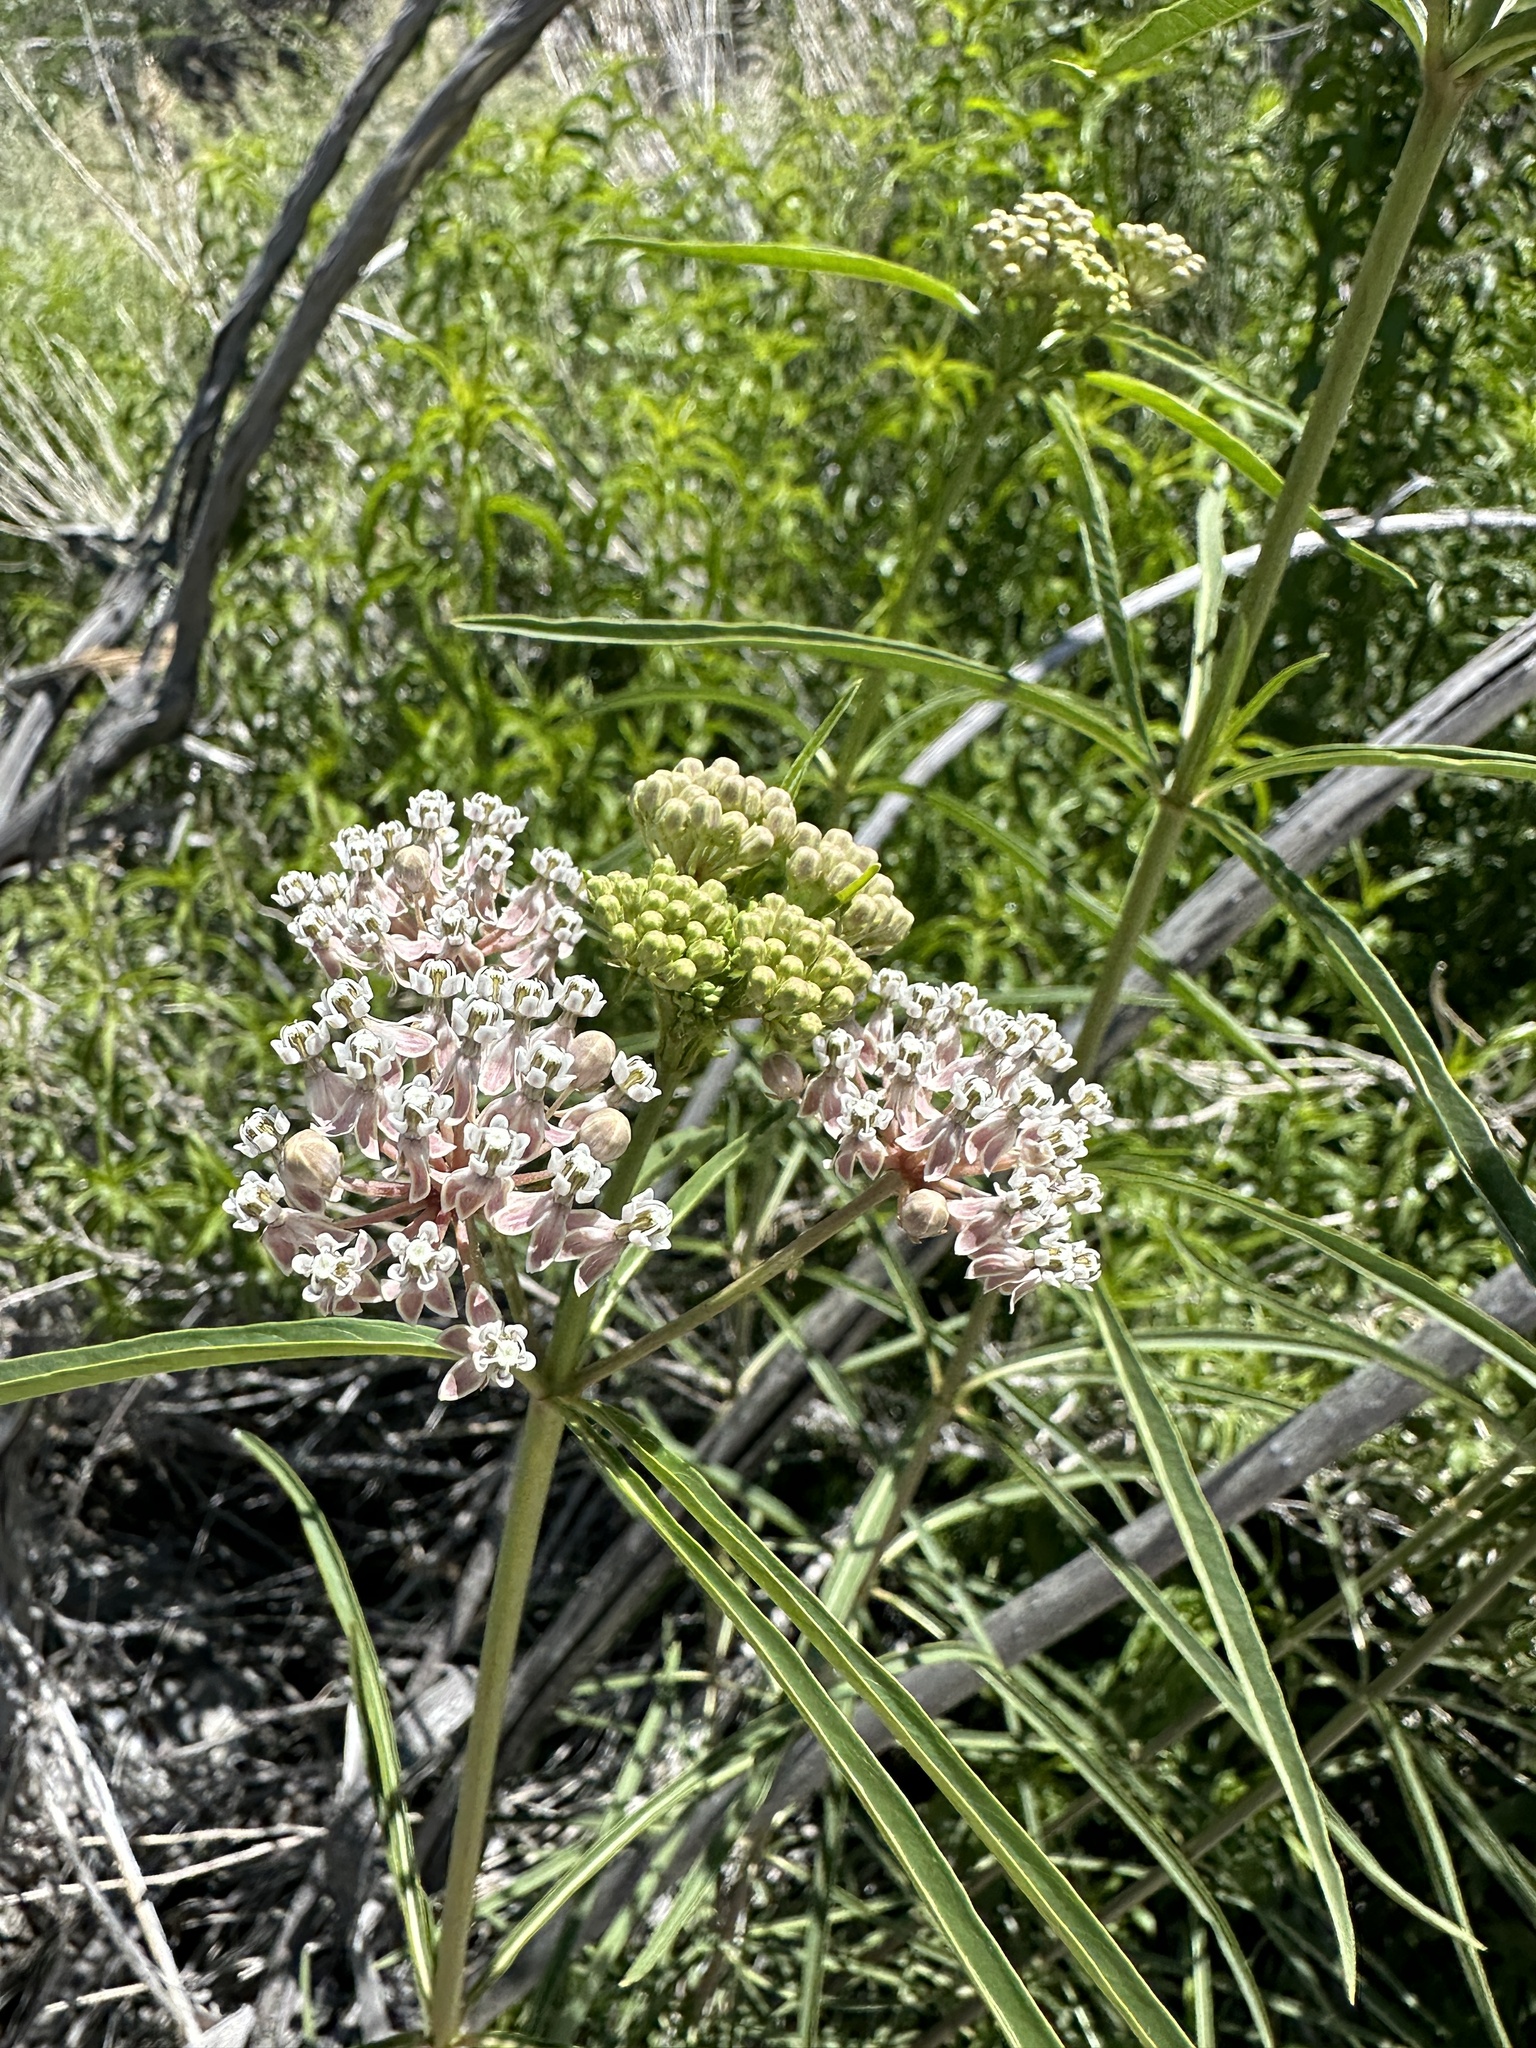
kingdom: Plantae
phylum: Tracheophyta
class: Magnoliopsida
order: Gentianales
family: Apocynaceae
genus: Asclepias
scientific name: Asclepias fascicularis
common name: Mexican milkweed
